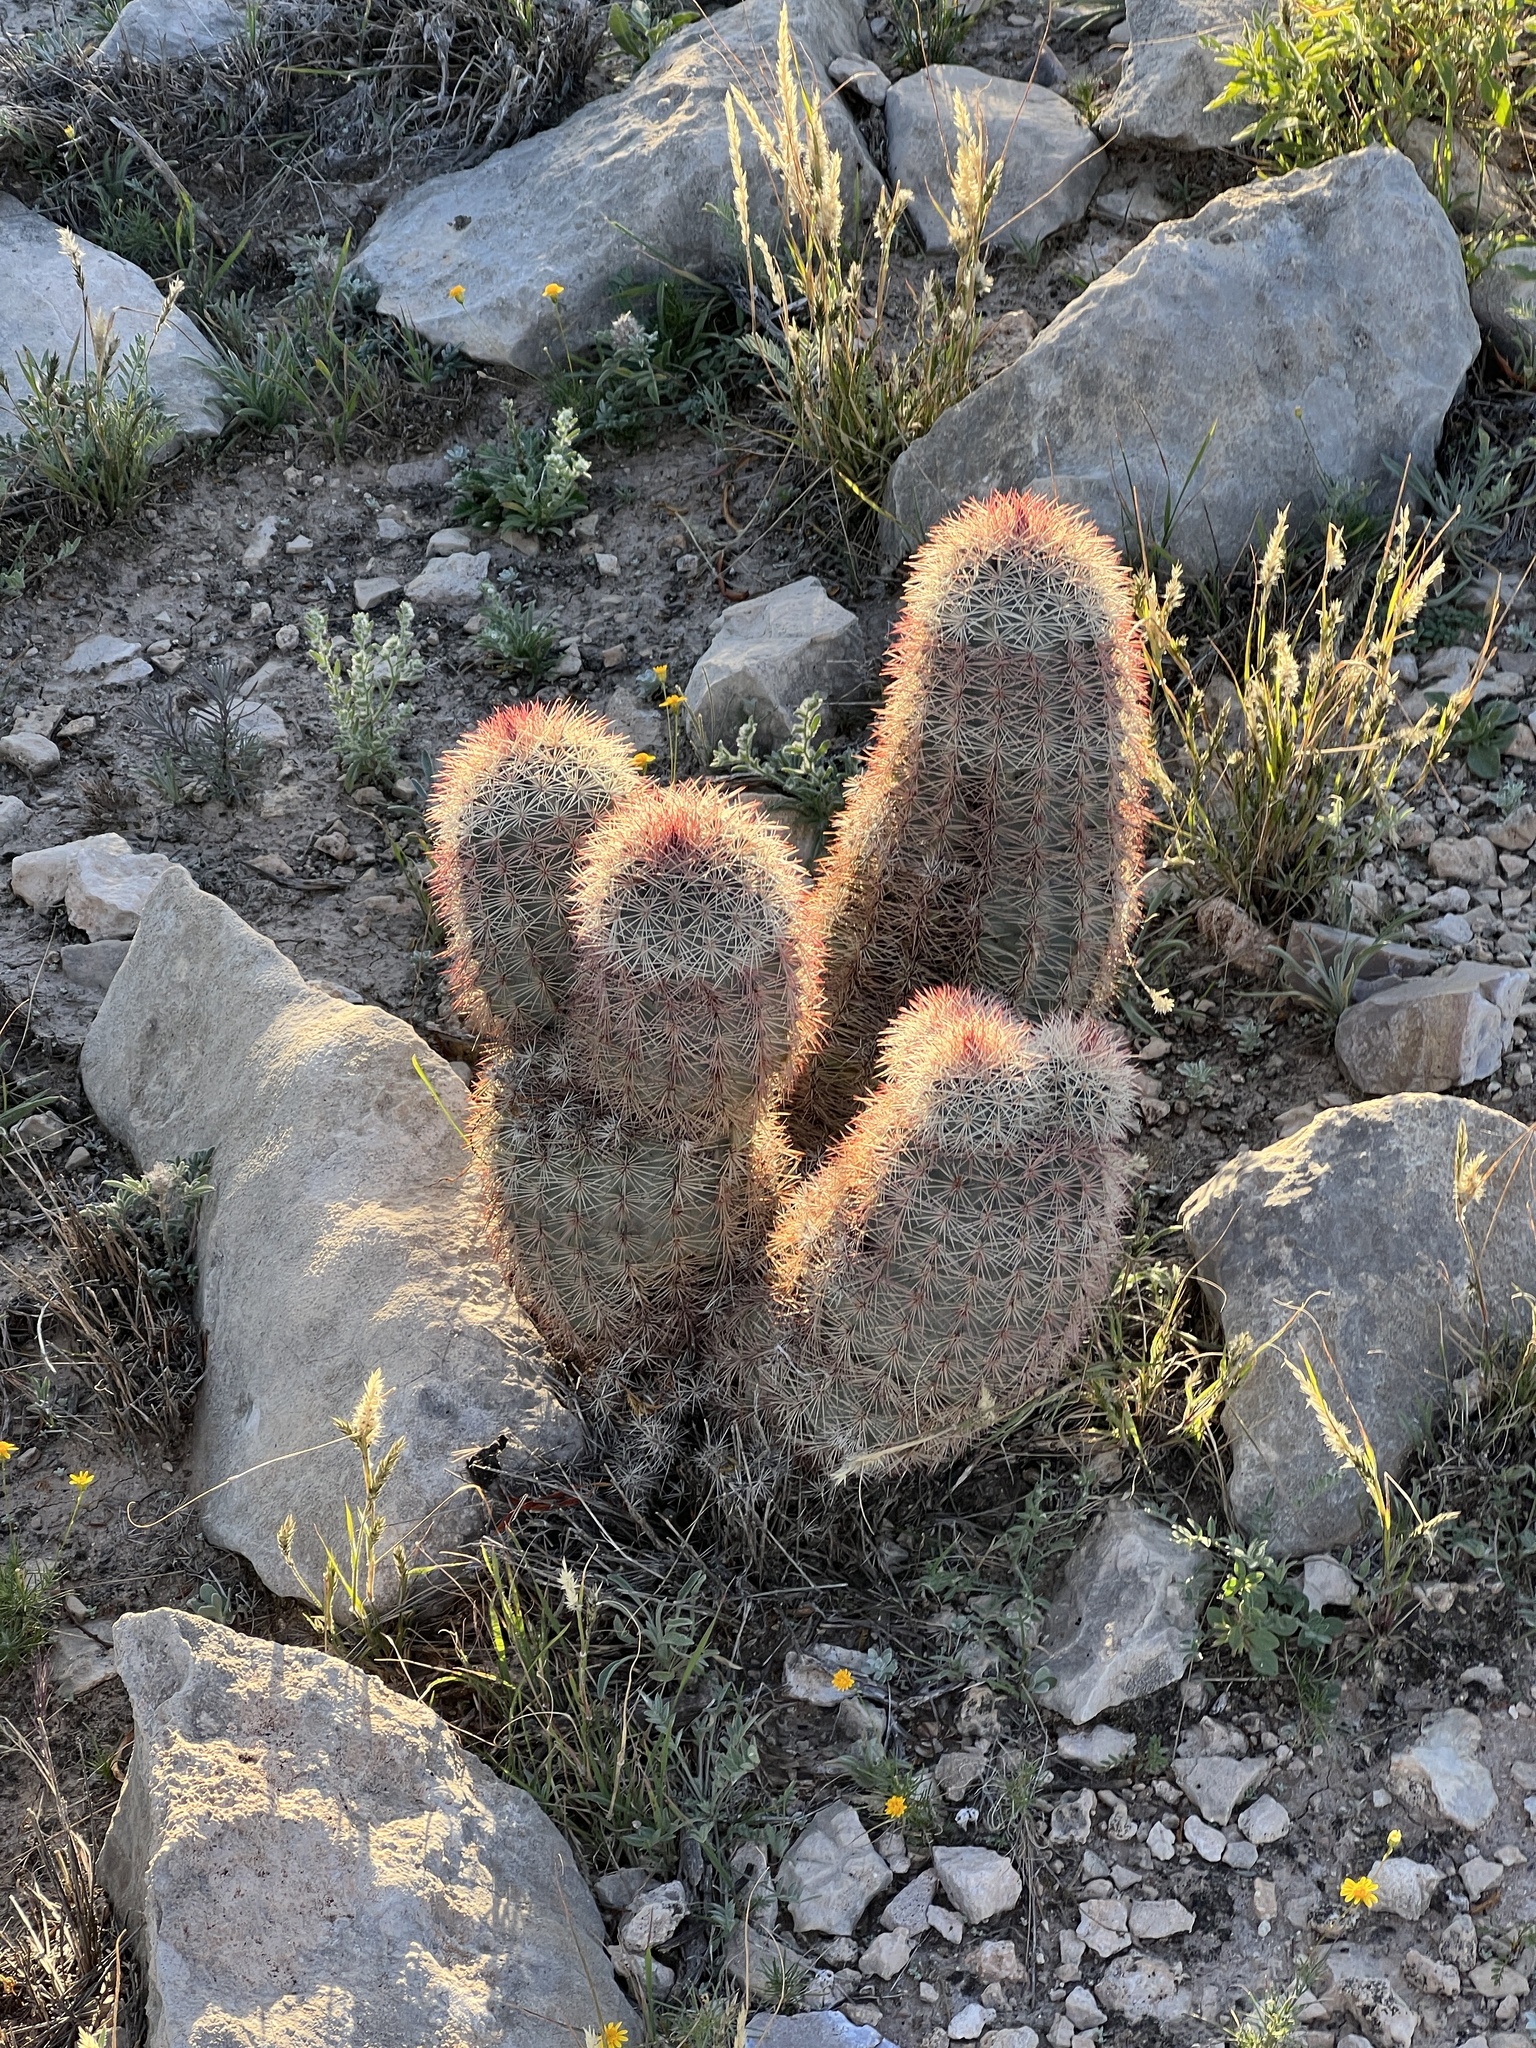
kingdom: Plantae
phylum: Tracheophyta
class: Magnoliopsida
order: Caryophyllales
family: Cactaceae
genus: Echinocereus
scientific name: Echinocereus dasyacanthus
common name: Spiny hedgehog cactus
